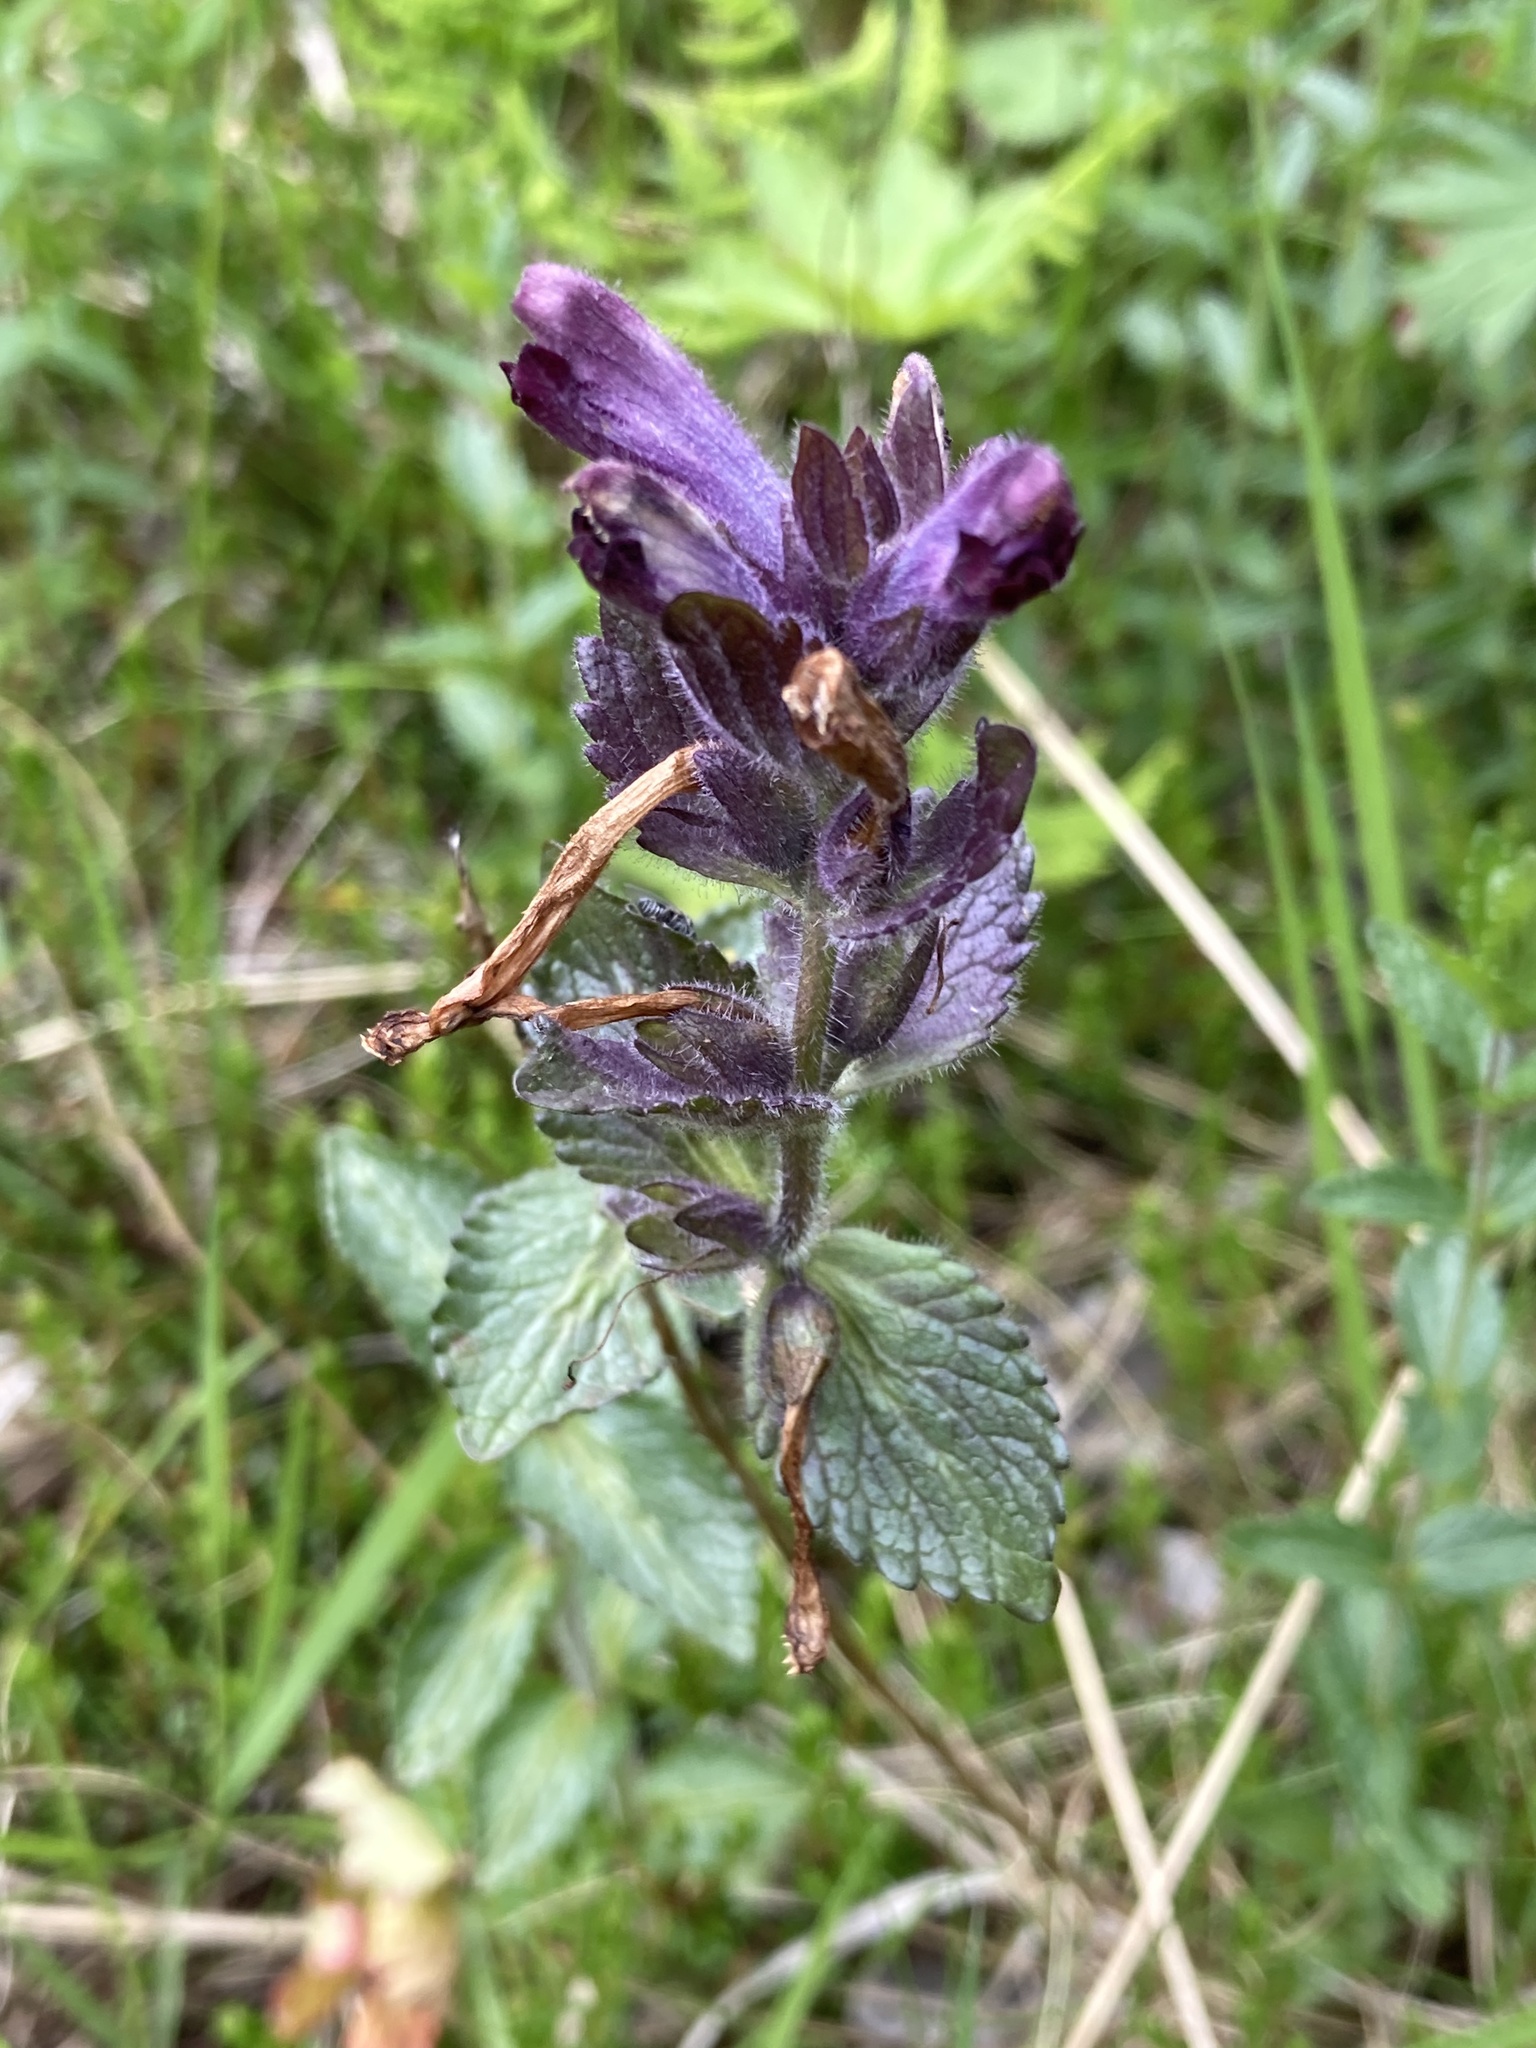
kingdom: Plantae
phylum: Tracheophyta
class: Magnoliopsida
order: Lamiales
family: Orobanchaceae
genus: Bartsia
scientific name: Bartsia alpina
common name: Alpine bartsia
